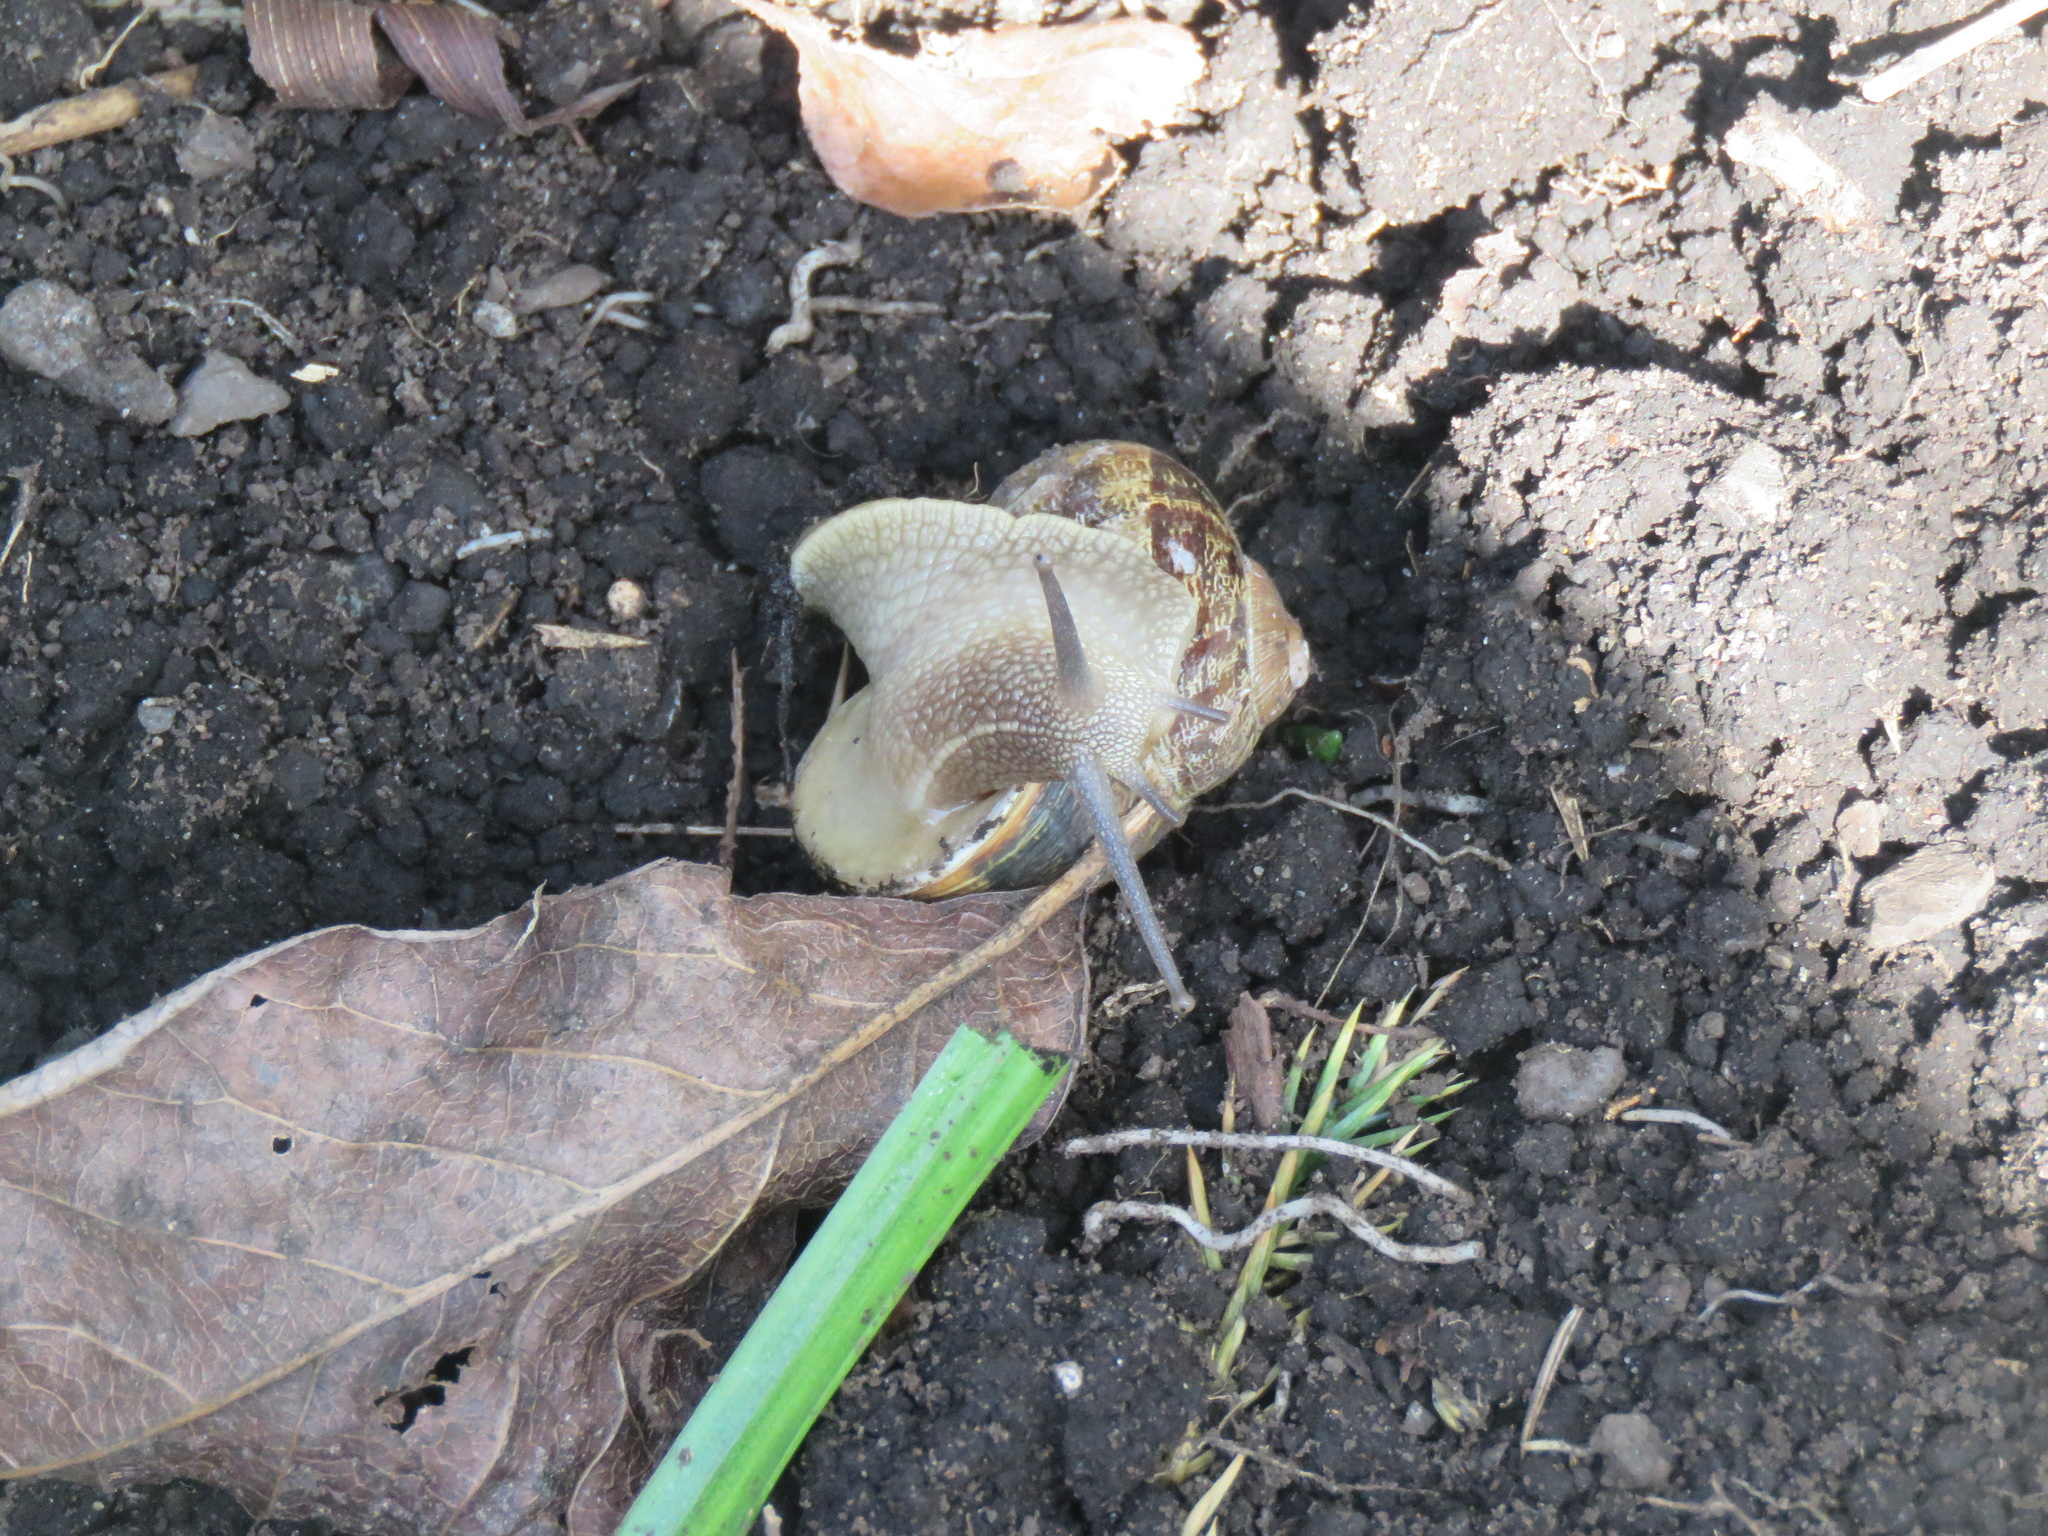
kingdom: Animalia
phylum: Mollusca
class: Gastropoda
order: Stylommatophora
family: Helicidae
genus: Cornu
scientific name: Cornu aspersum
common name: Brown garden snail
